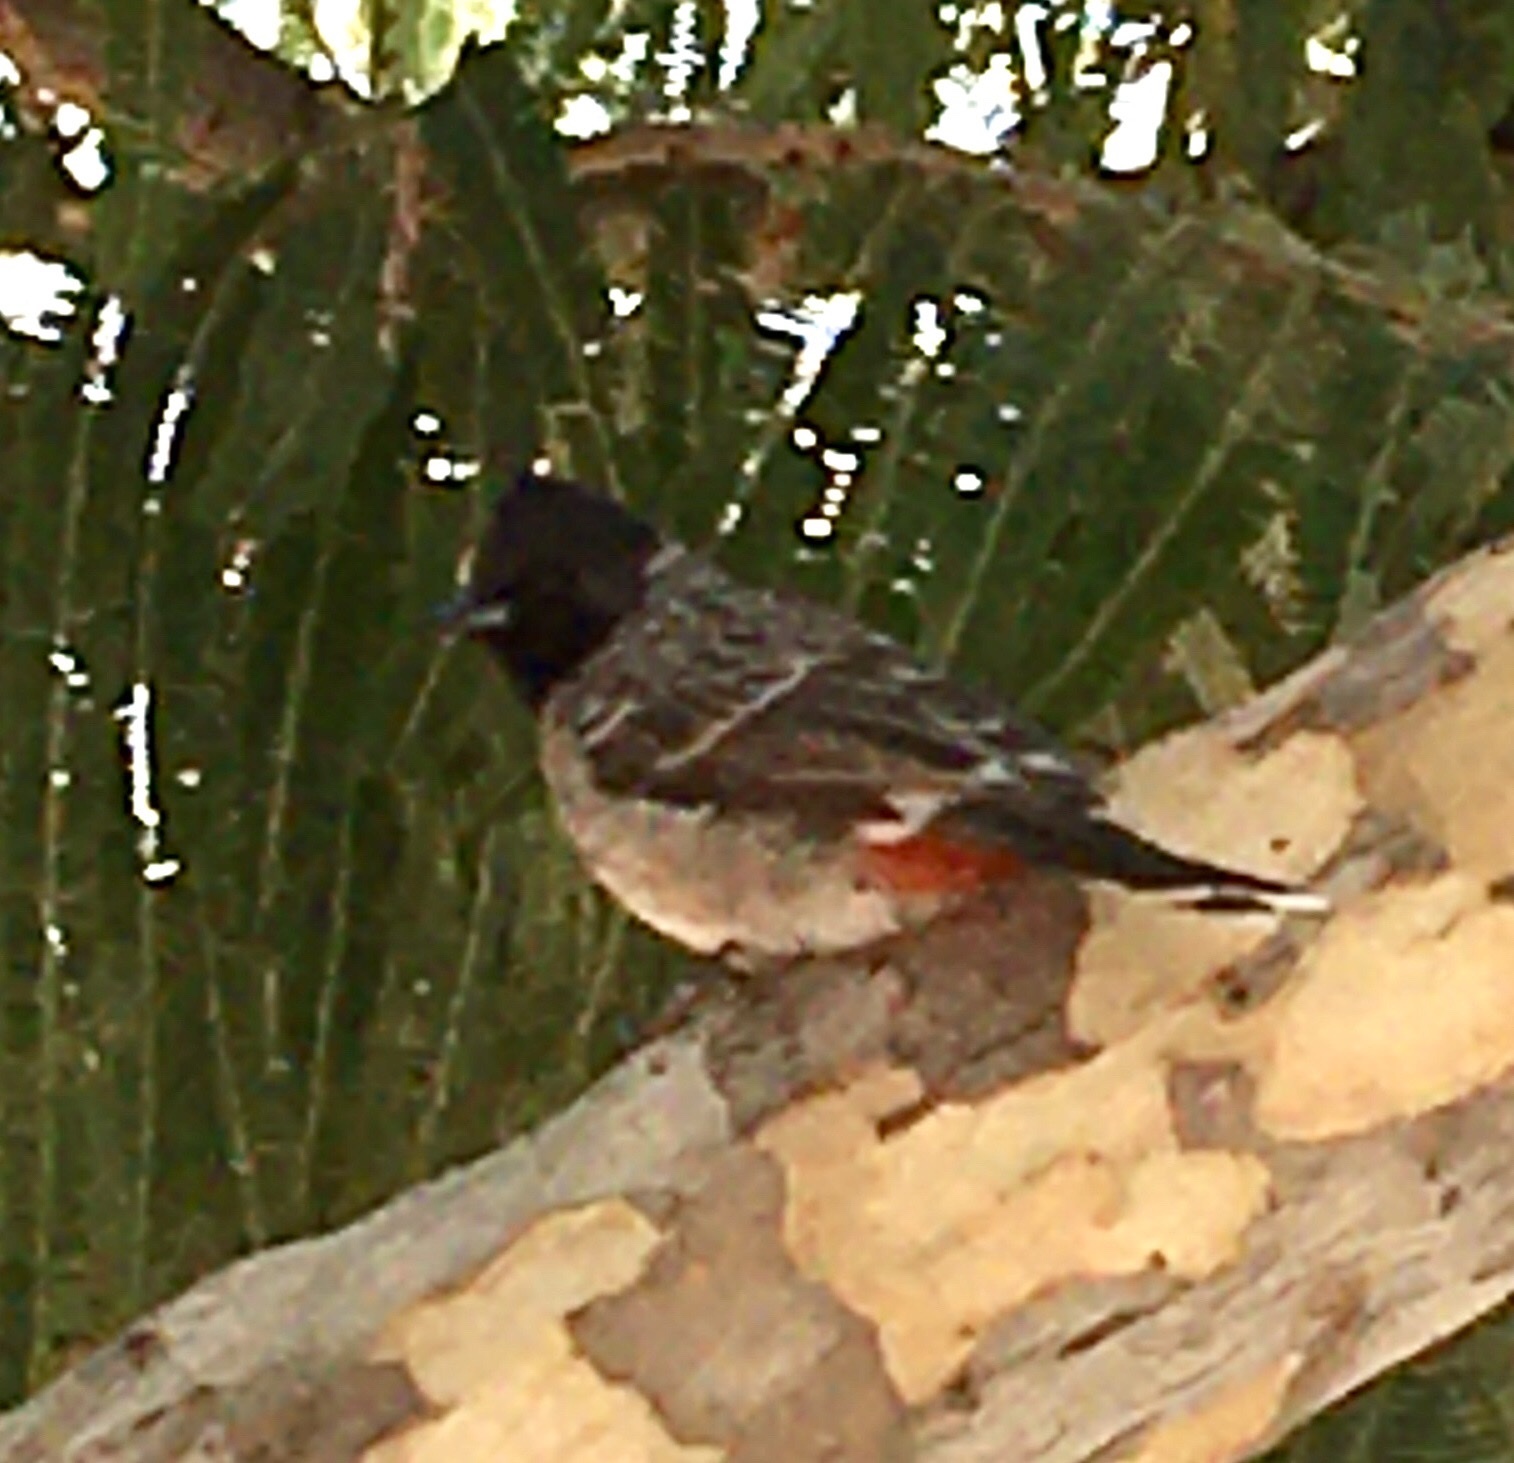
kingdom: Animalia
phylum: Chordata
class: Aves
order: Passeriformes
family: Pycnonotidae
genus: Pycnonotus
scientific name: Pycnonotus cafer
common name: Red-vented bulbul
